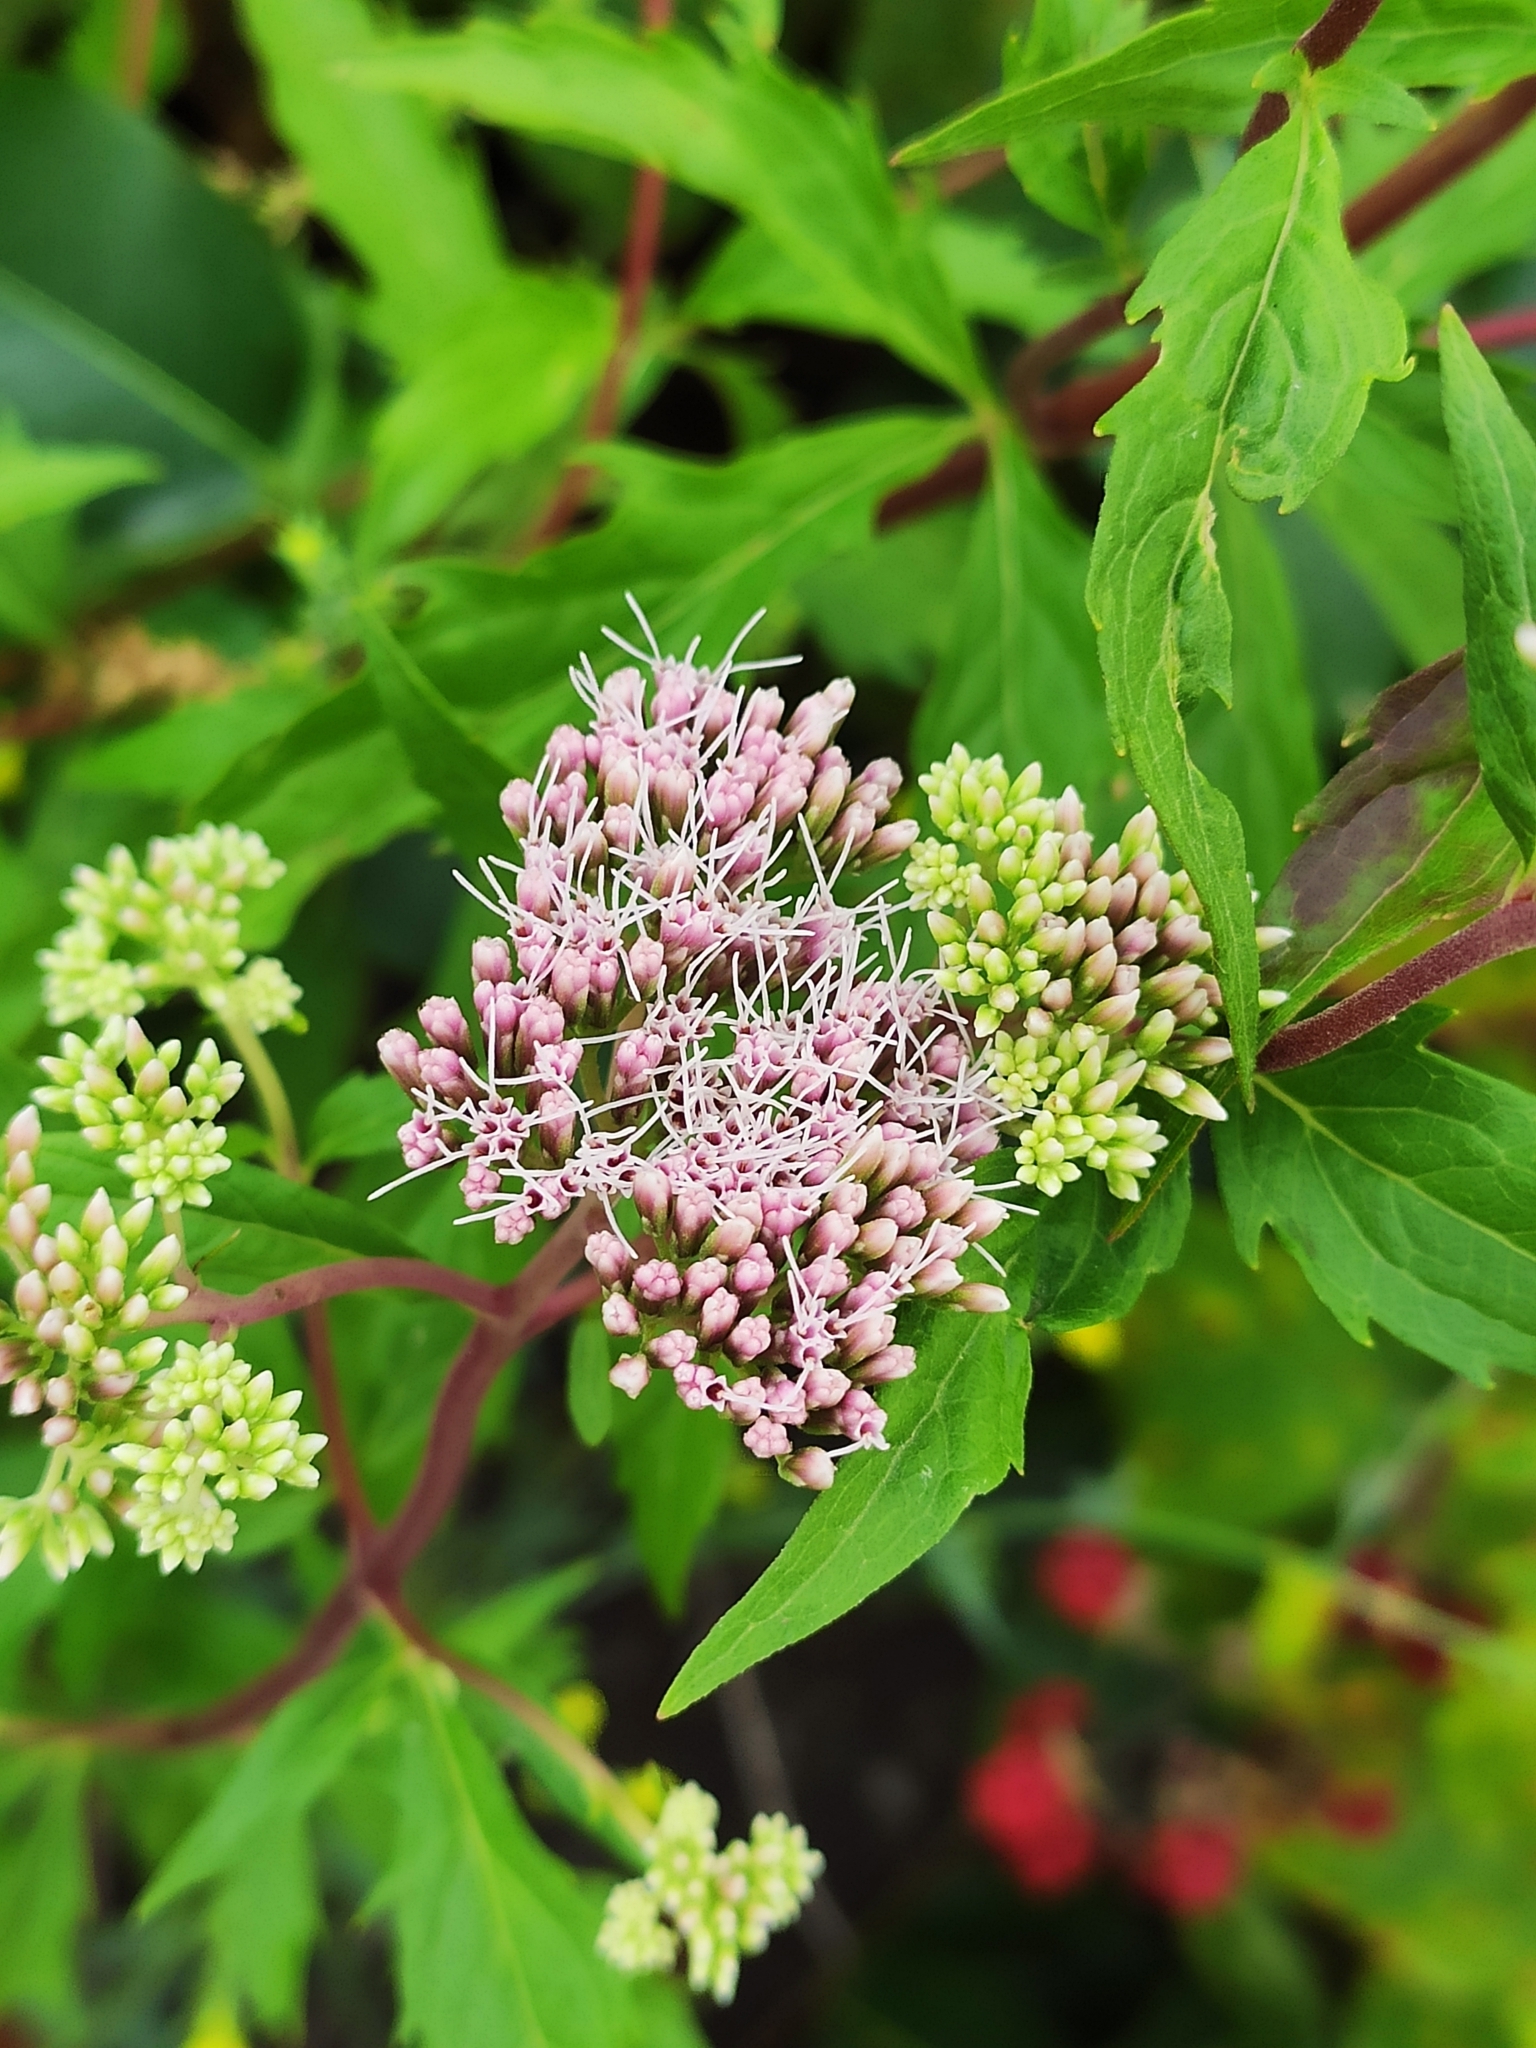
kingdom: Plantae
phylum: Tracheophyta
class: Magnoliopsida
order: Asterales
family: Asteraceae
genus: Eupatorium
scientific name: Eupatorium cannabinum
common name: Hemp-agrimony
